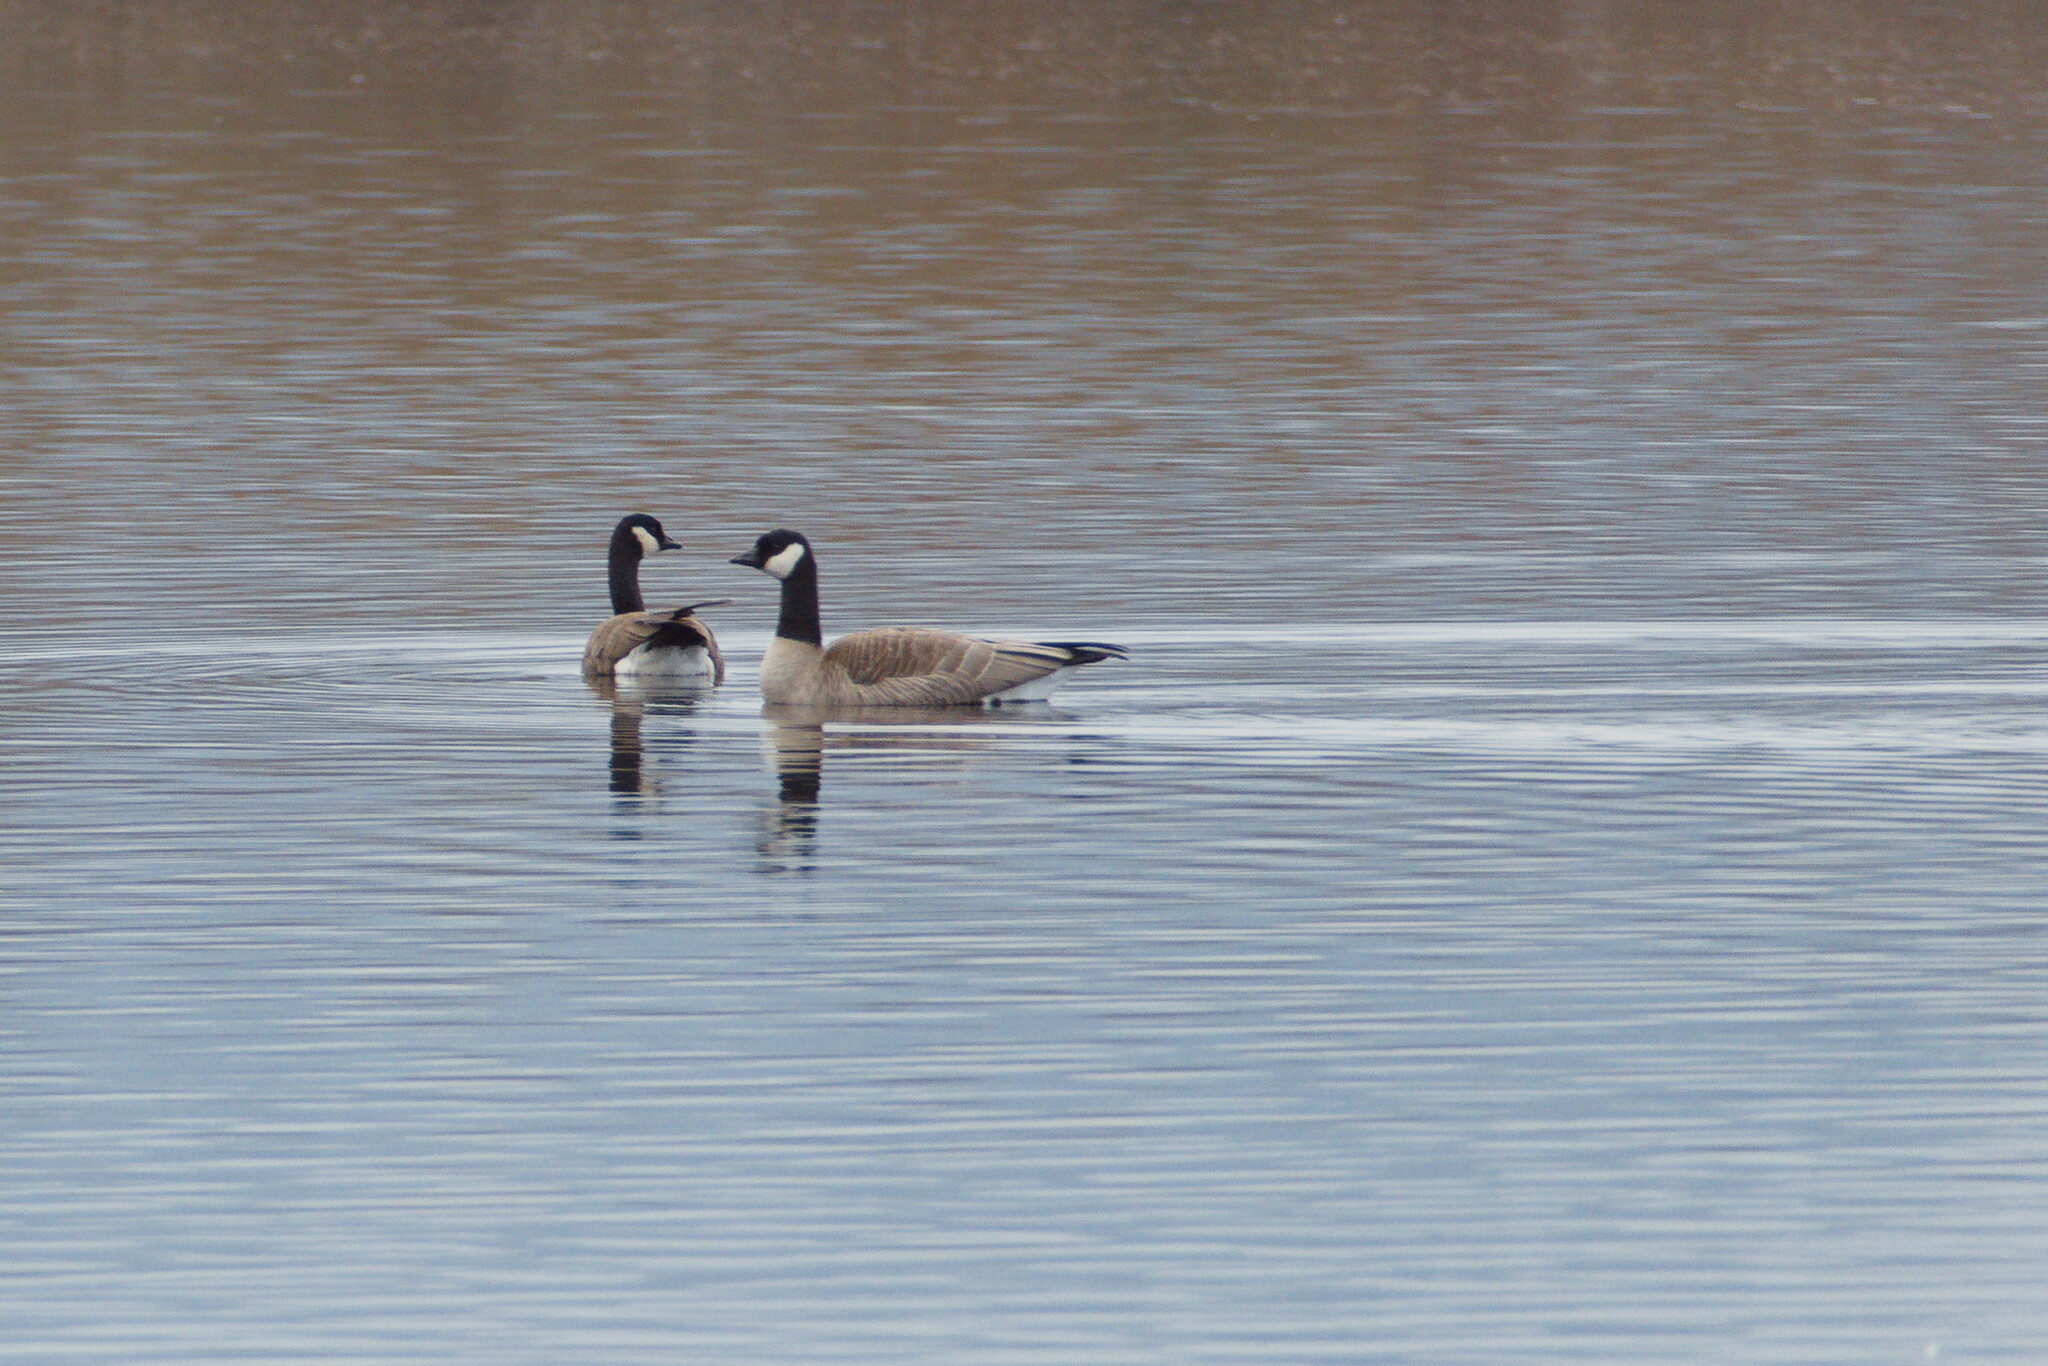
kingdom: Animalia
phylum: Chordata
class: Aves
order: Anseriformes
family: Anatidae
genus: Branta
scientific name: Branta hutchinsii
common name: Cackling goose
